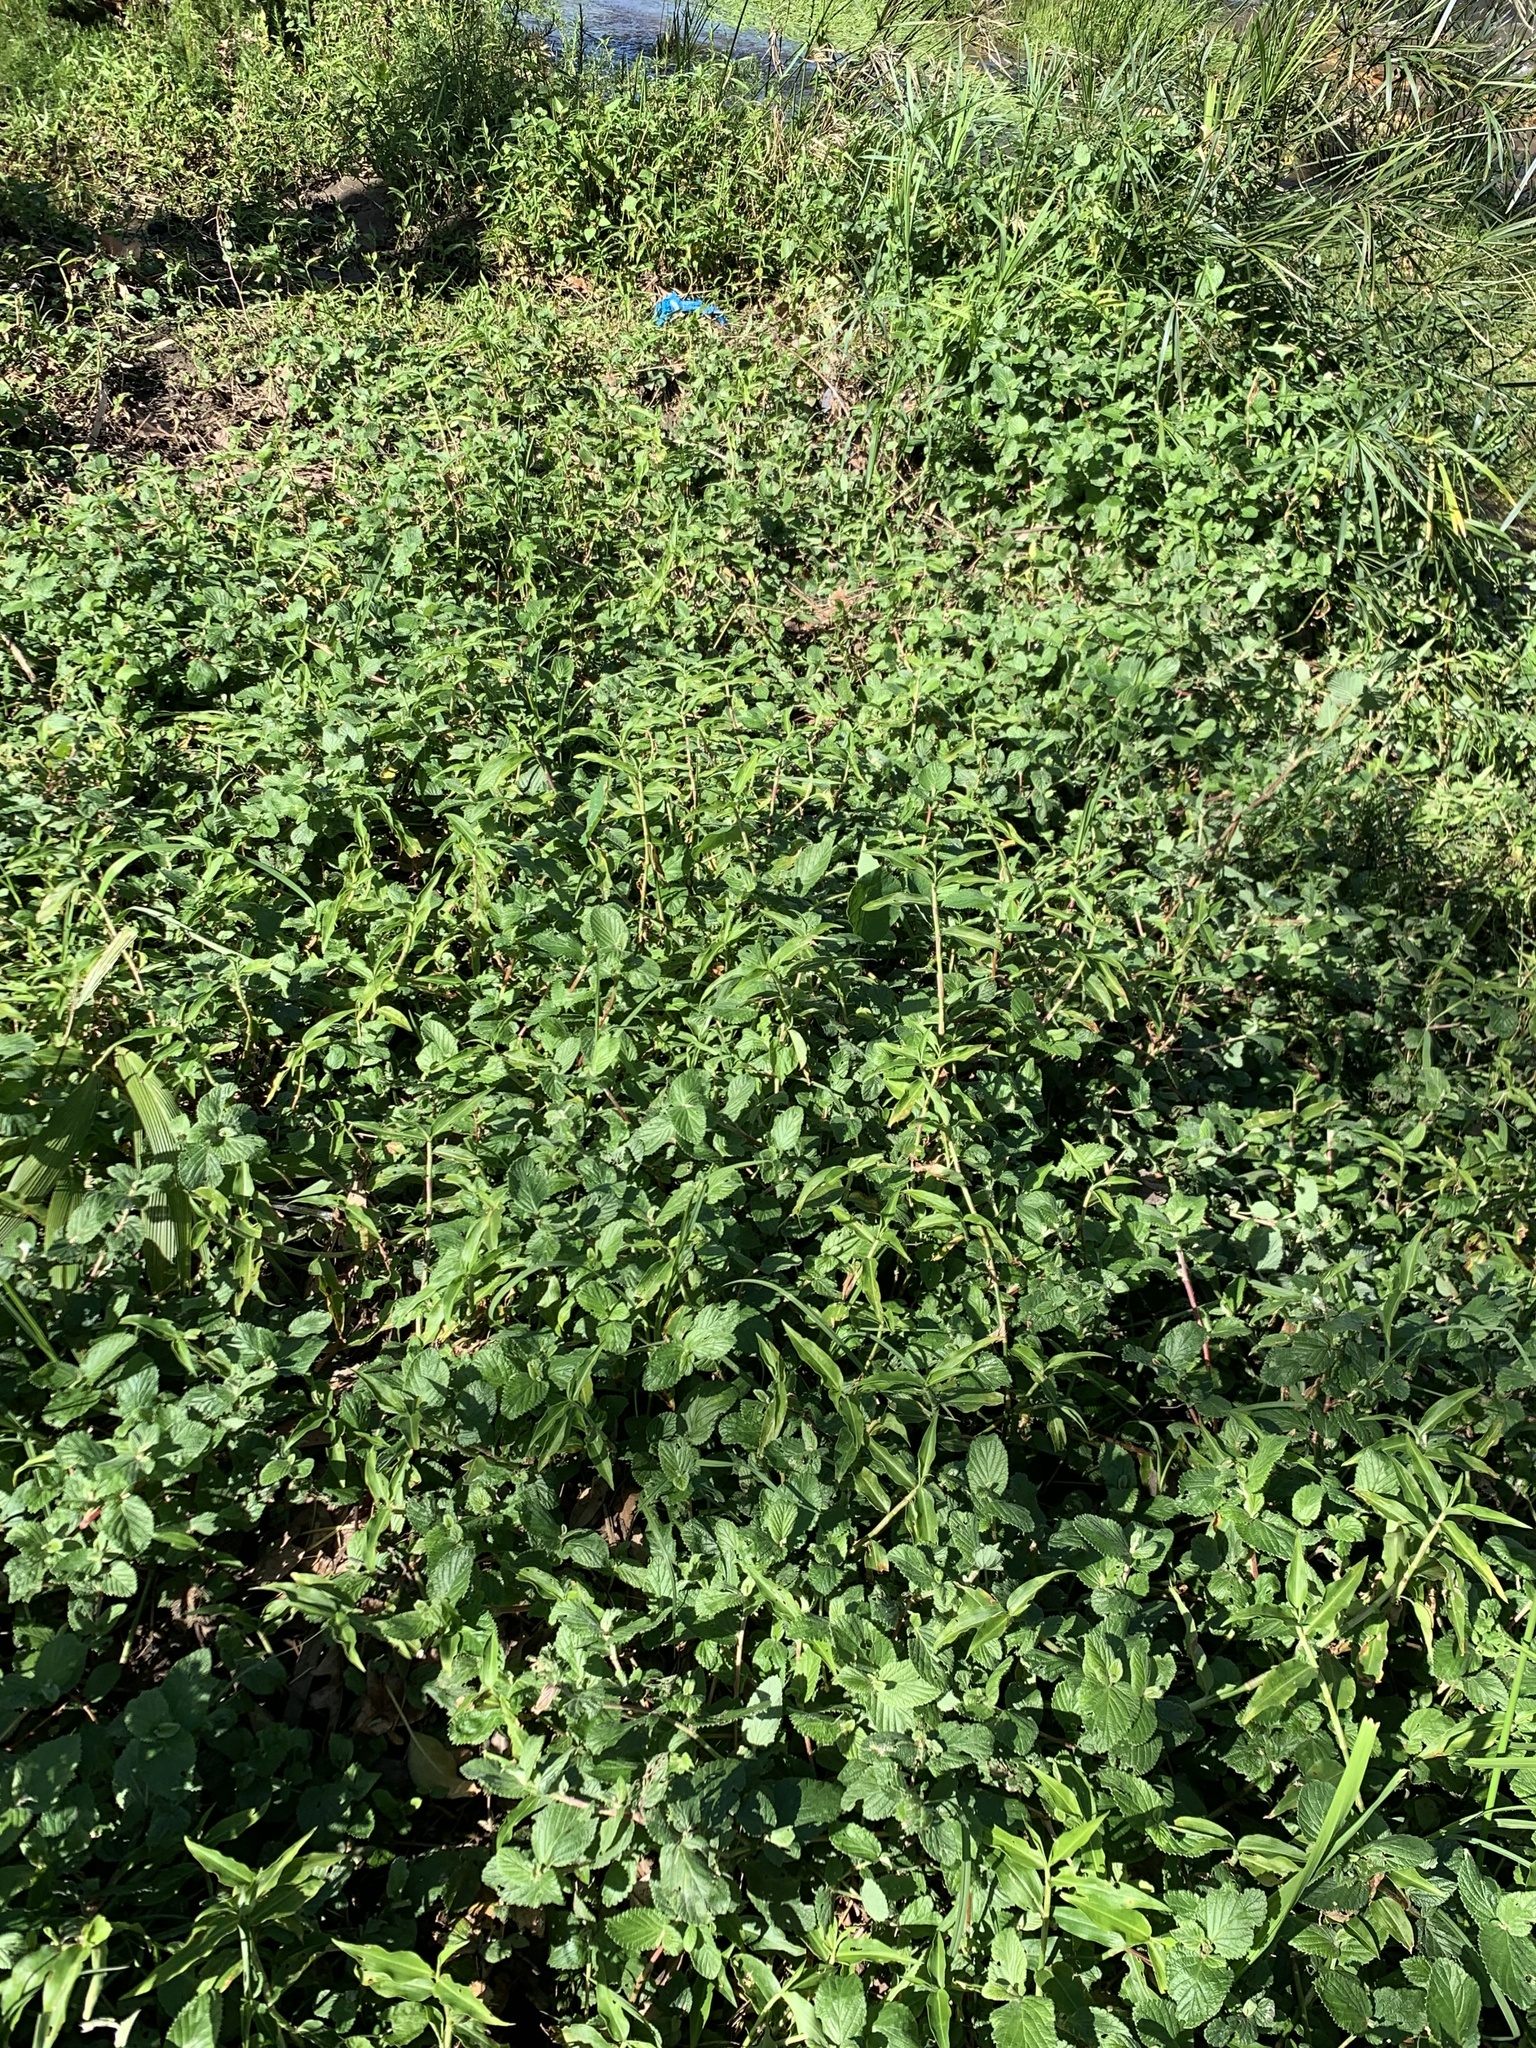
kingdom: Plantae
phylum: Tracheophyta
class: Magnoliopsida
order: Rosales
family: Rosaceae
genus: Cliffortia
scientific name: Cliffortia odorata
